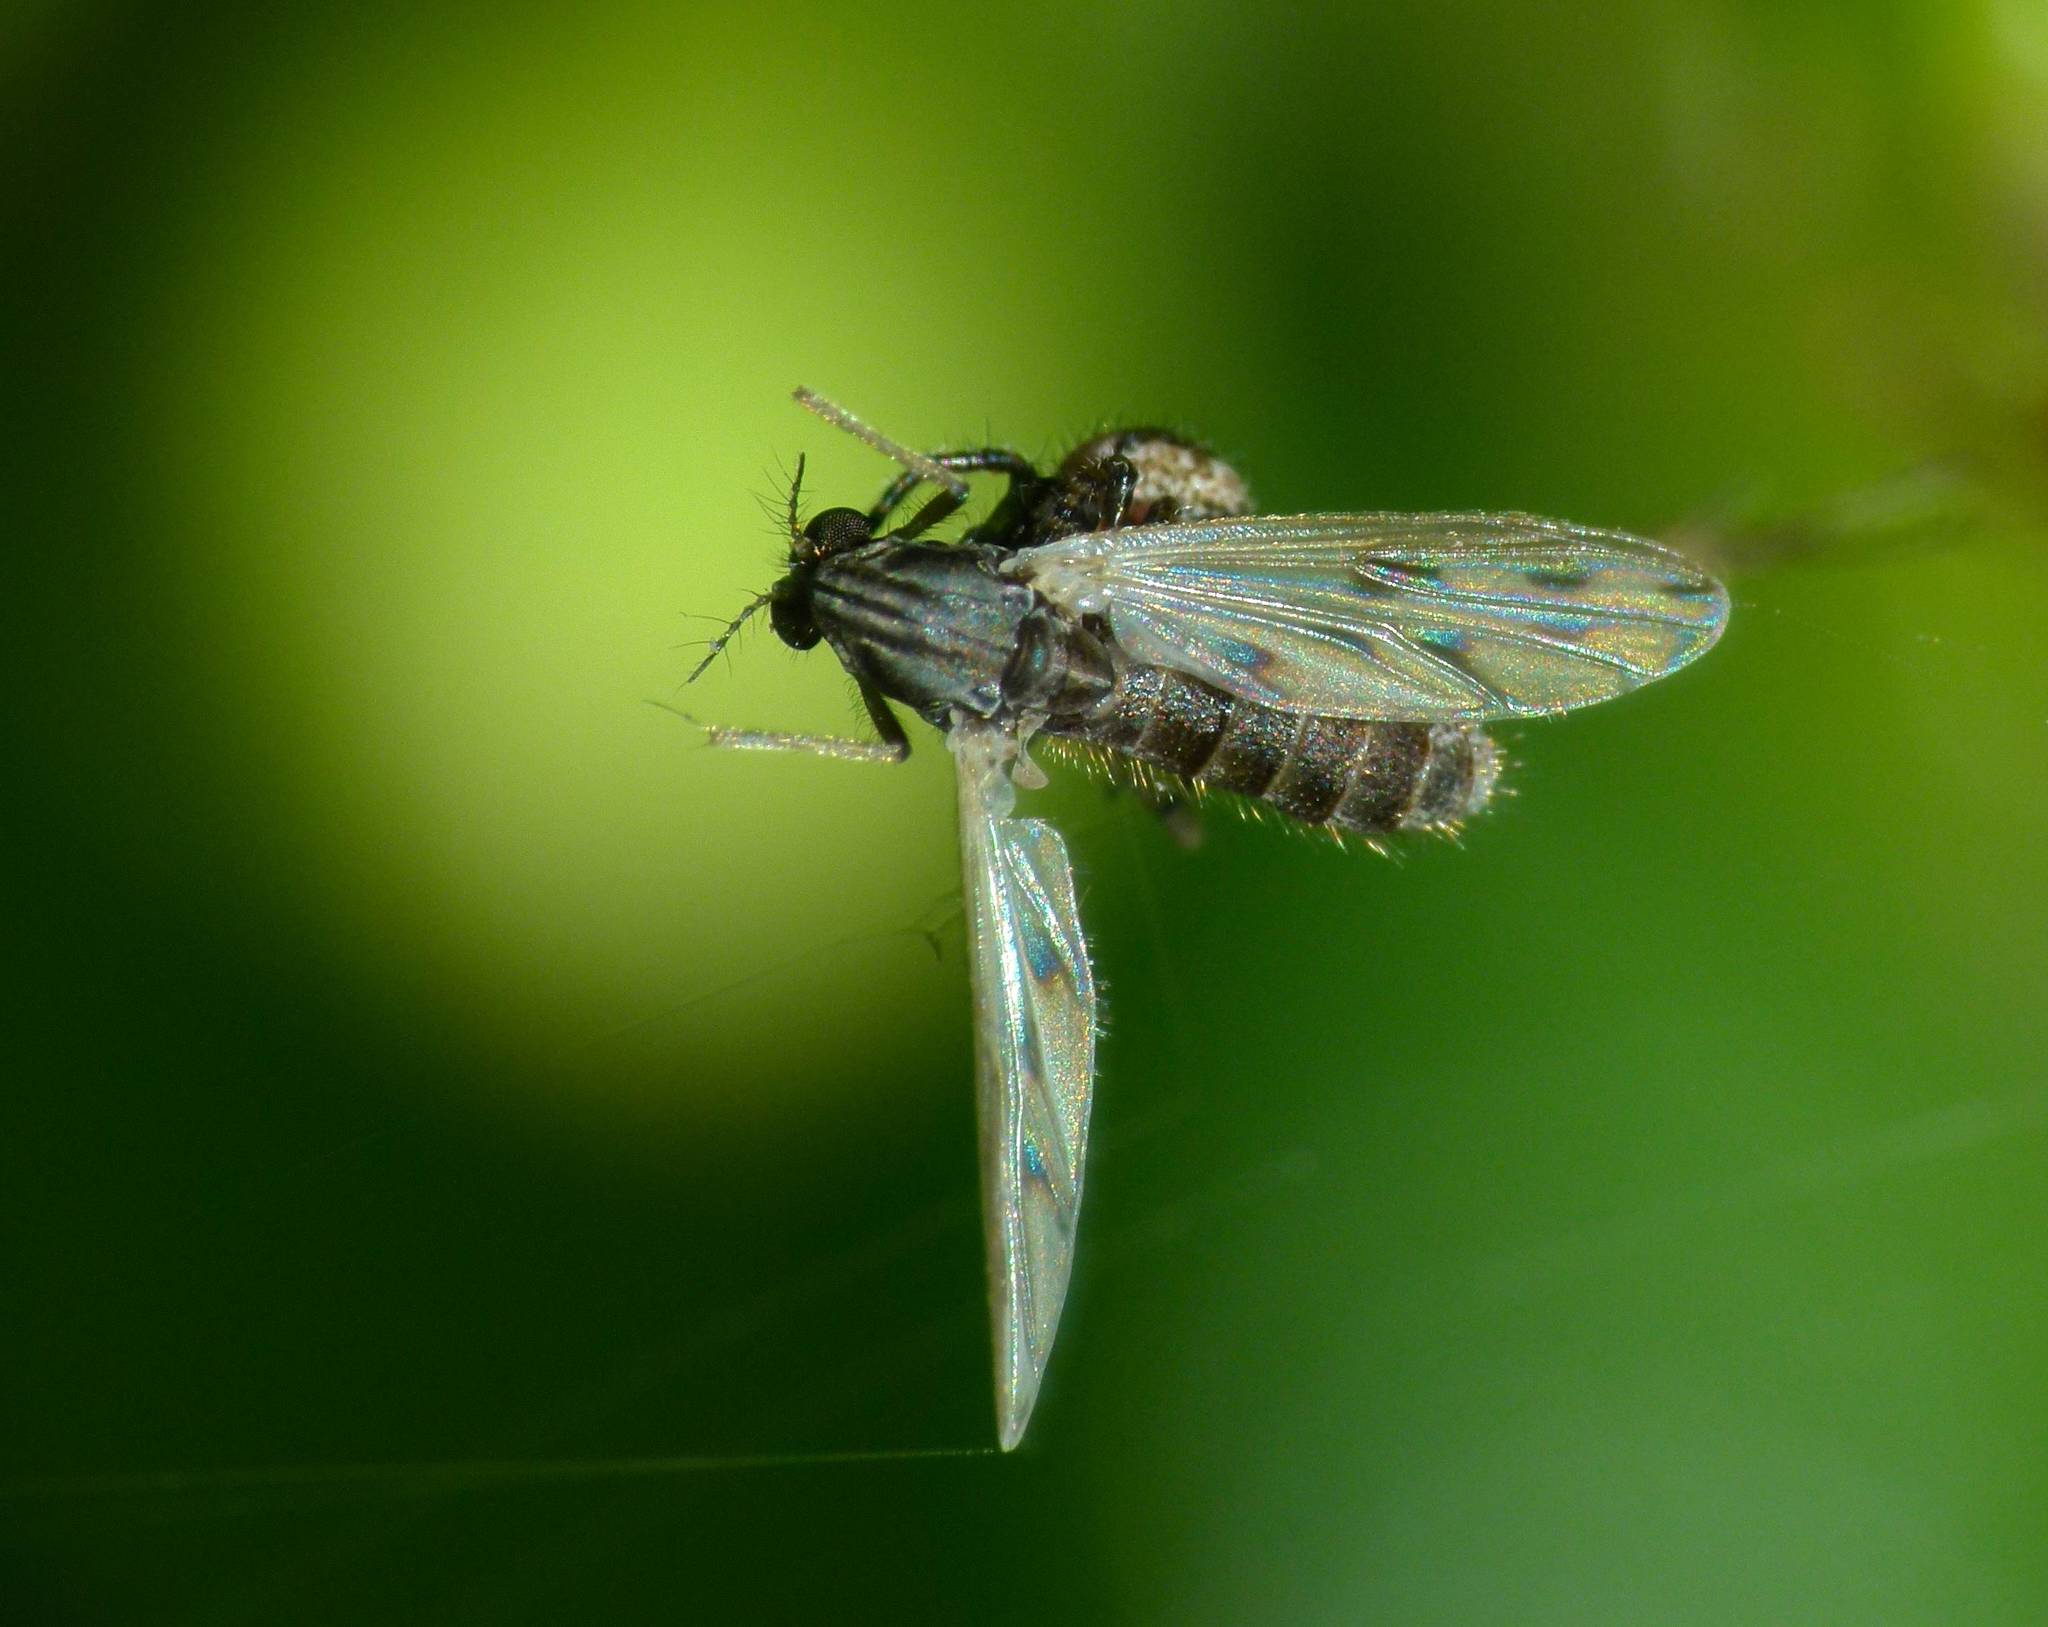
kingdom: Animalia
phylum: Arthropoda
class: Insecta
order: Diptera
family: Chironomidae
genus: Polypedilum
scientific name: Polypedilum pavidus
